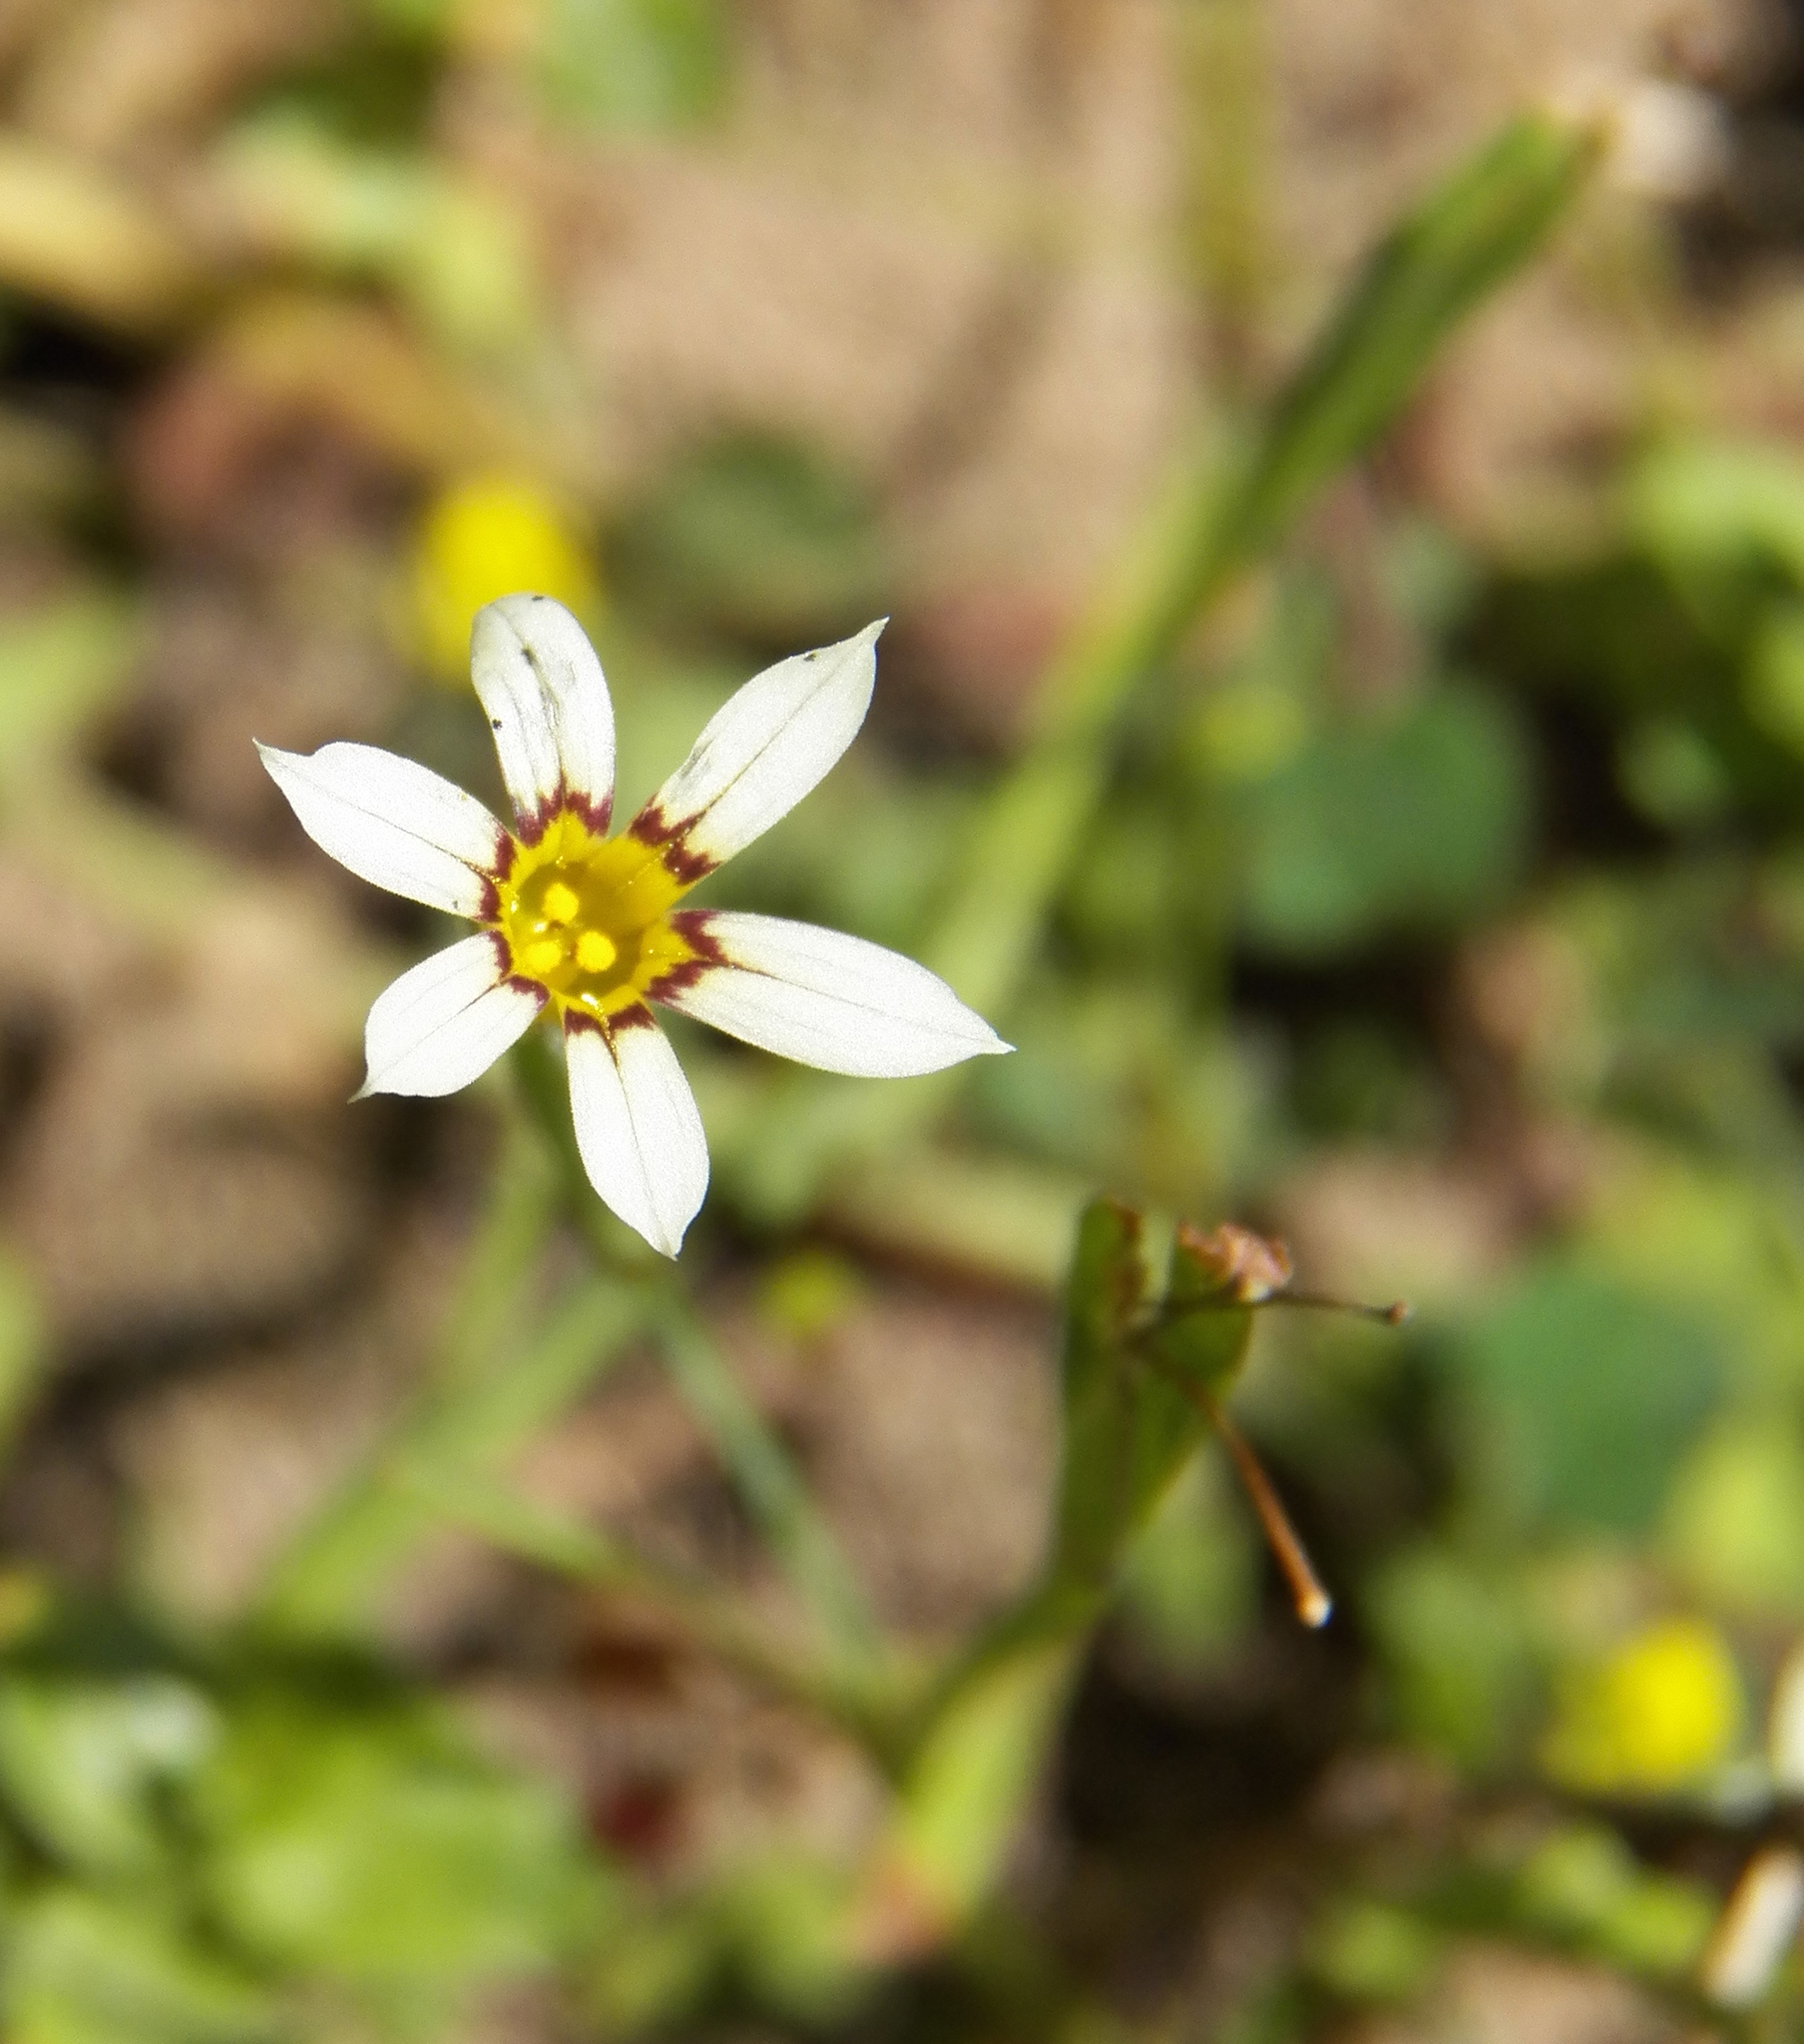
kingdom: Plantae
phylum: Tracheophyta
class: Liliopsida
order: Asparagales
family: Iridaceae
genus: Sisyrinchium
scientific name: Sisyrinchium micranthum
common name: Bermuda pigroot
